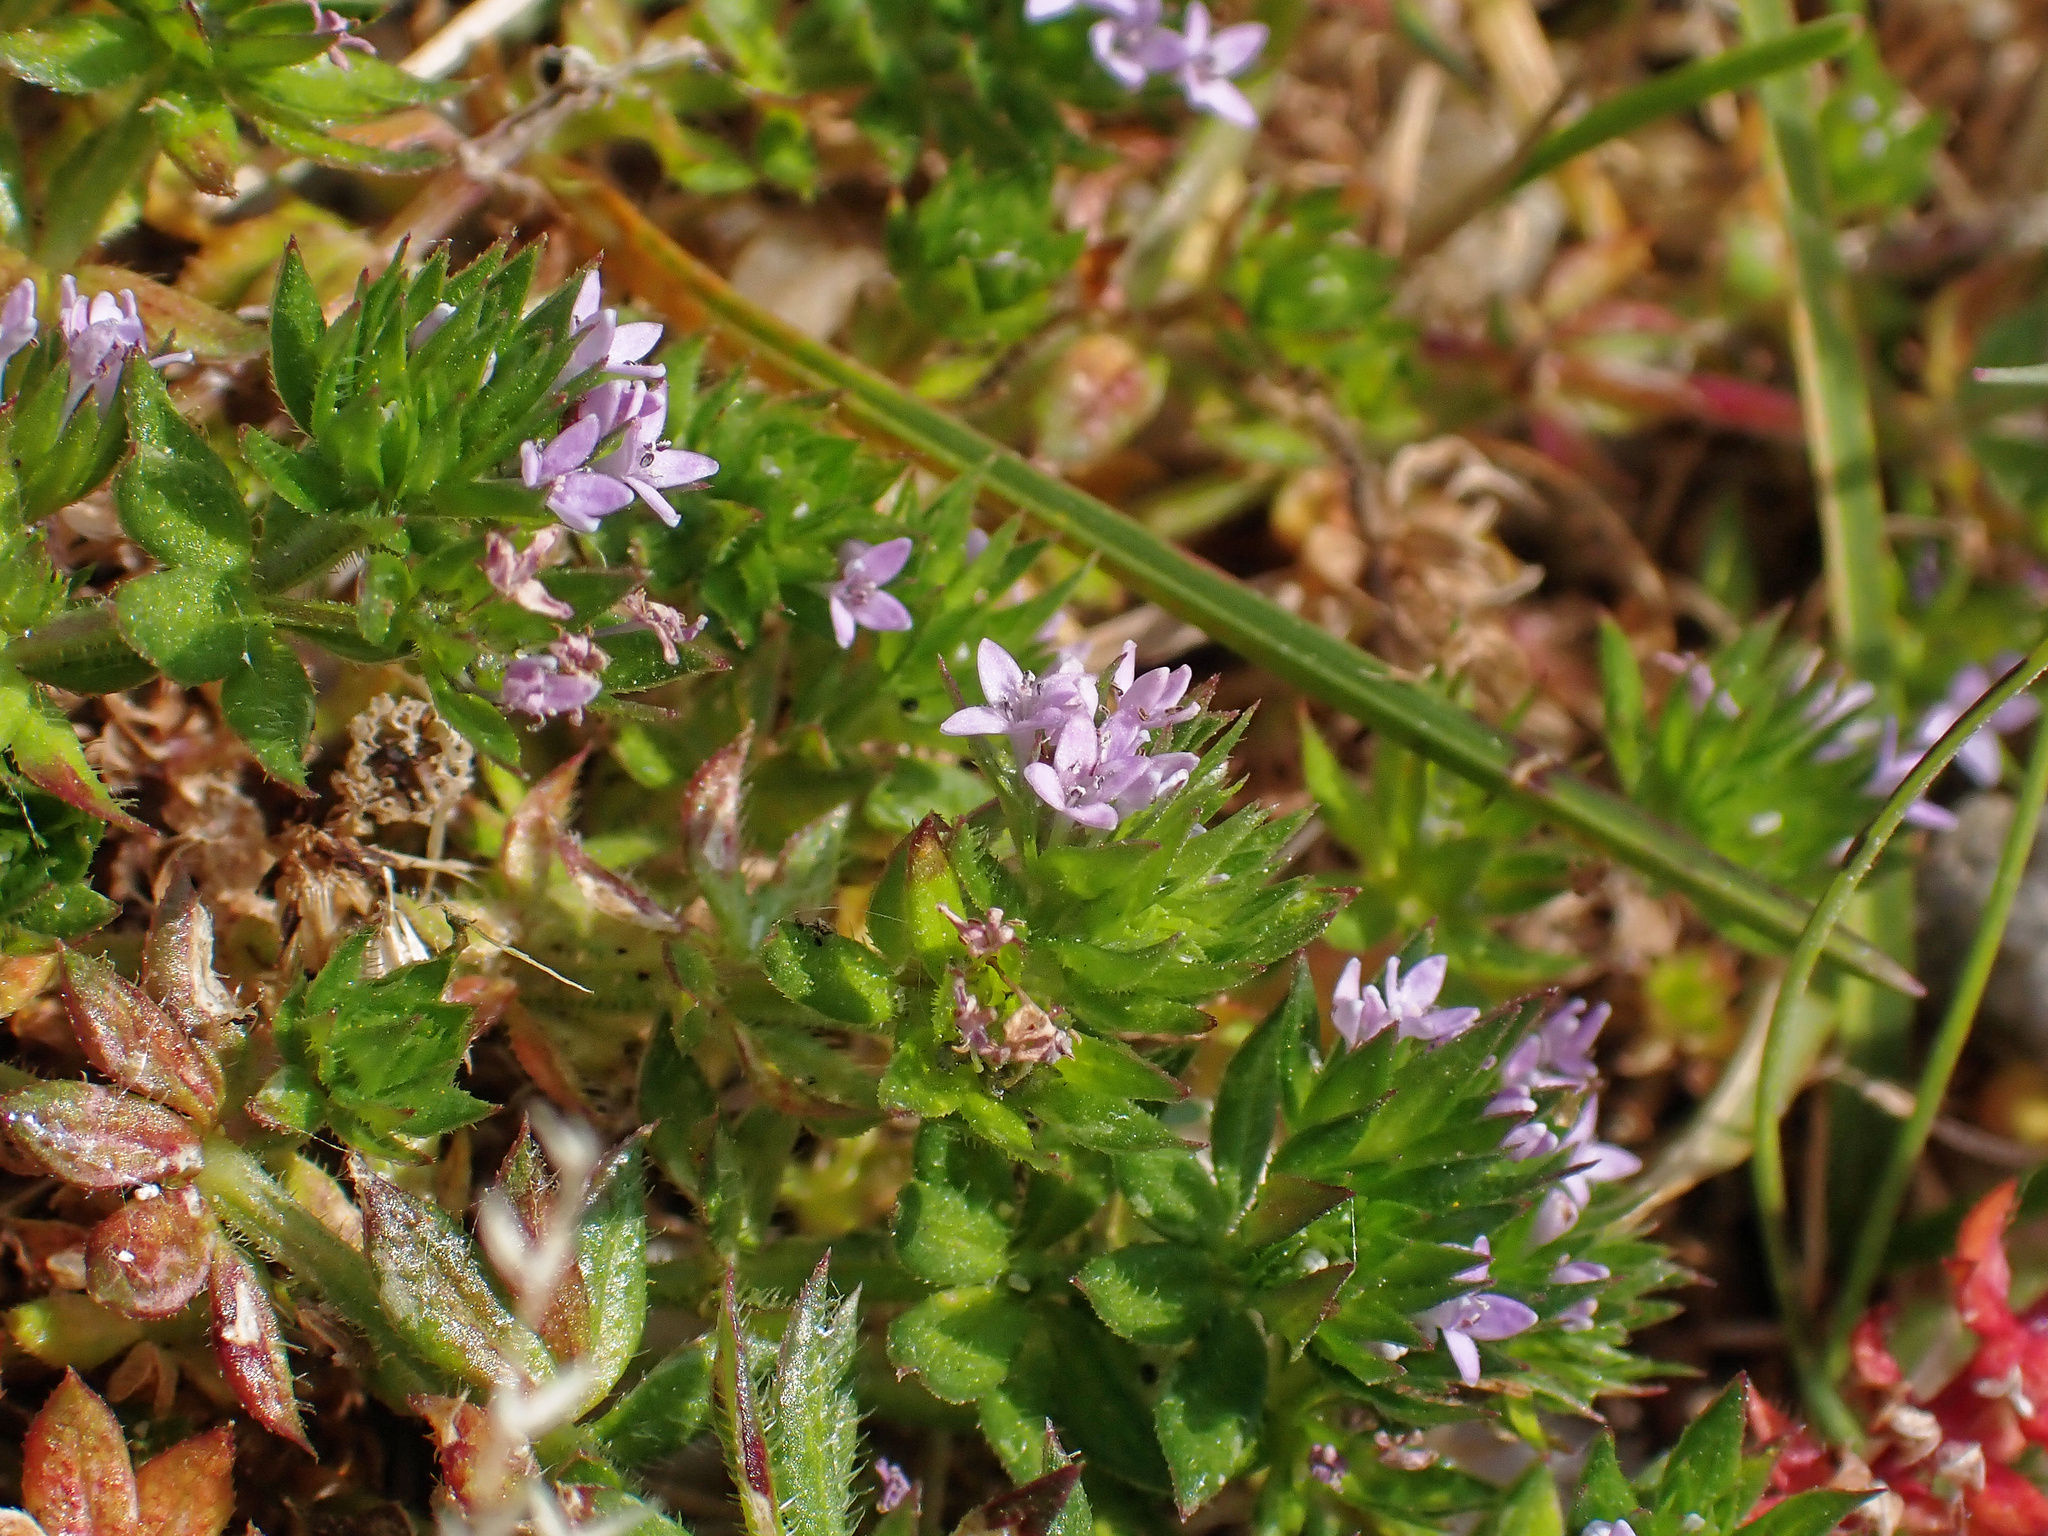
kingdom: Plantae
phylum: Tracheophyta
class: Magnoliopsida
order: Gentianales
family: Rubiaceae
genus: Sherardia
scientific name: Sherardia arvensis
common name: Field madder
